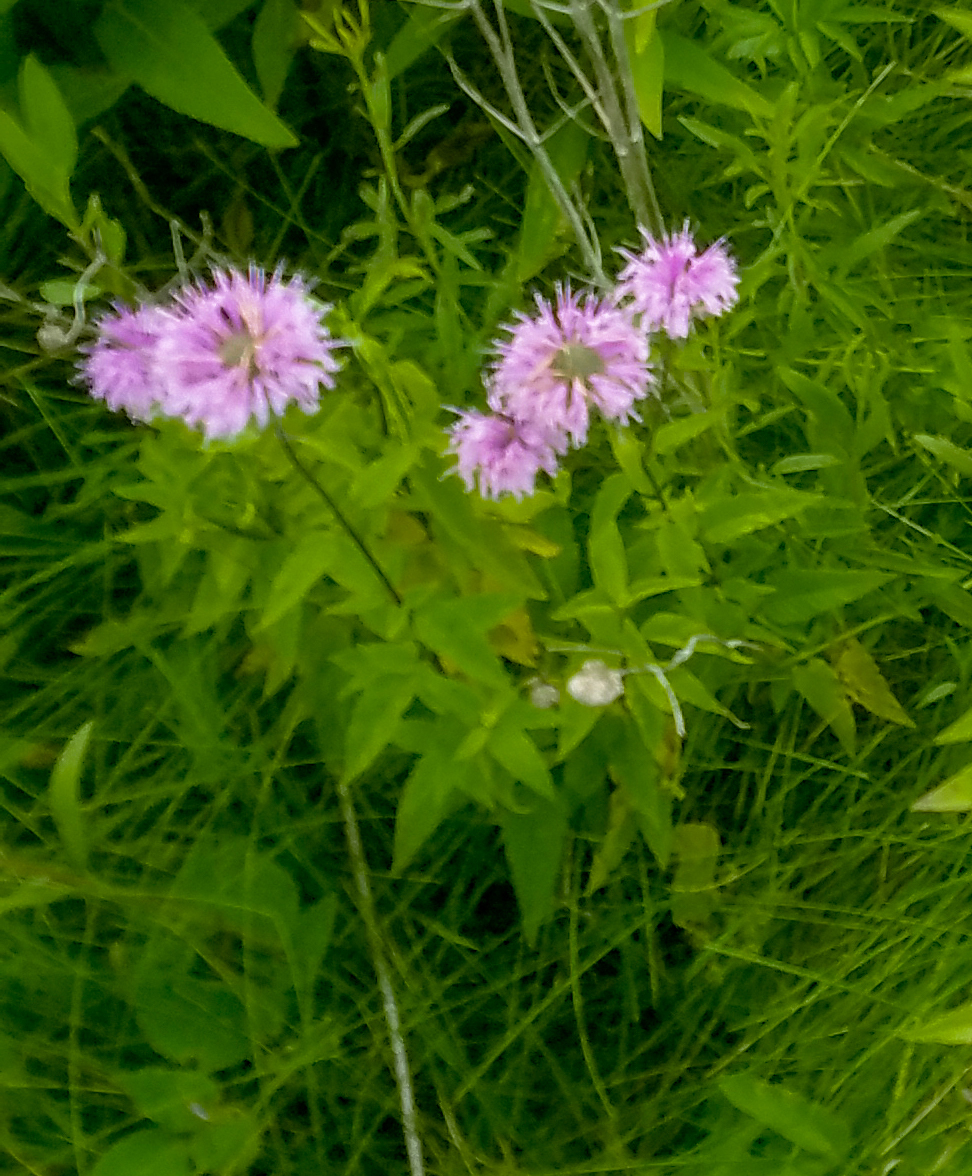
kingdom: Plantae
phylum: Tracheophyta
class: Magnoliopsida
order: Lamiales
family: Lamiaceae
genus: Monarda
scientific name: Monarda fistulosa
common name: Purple beebalm
